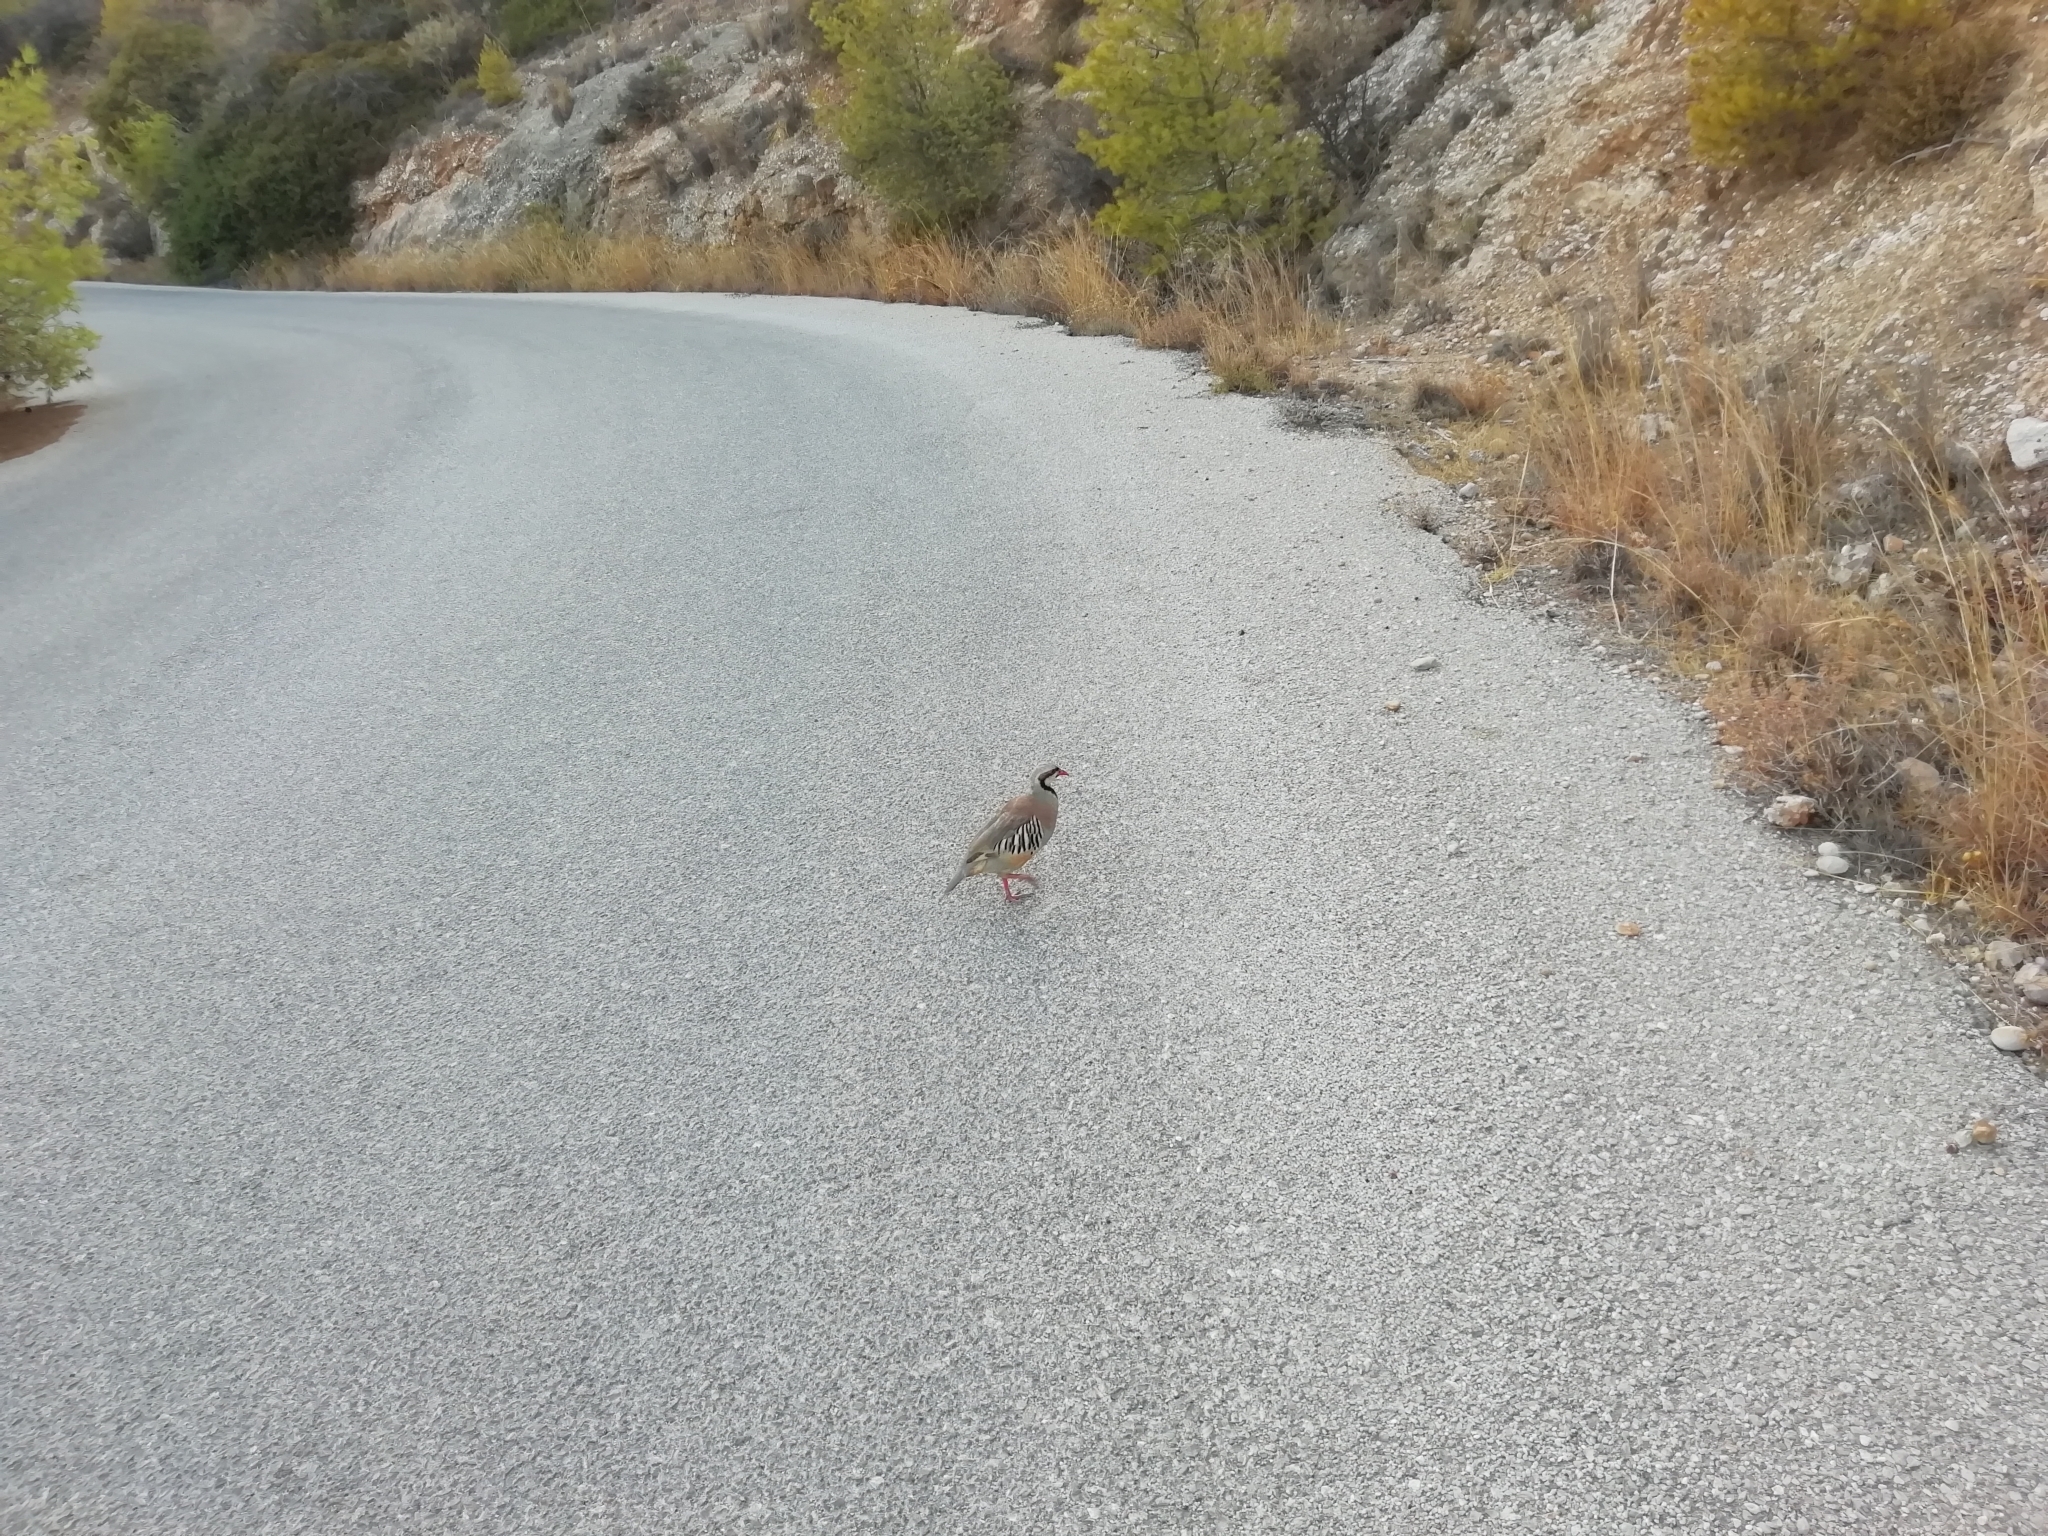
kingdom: Animalia
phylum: Chordata
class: Aves
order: Galliformes
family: Phasianidae
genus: Alectoris
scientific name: Alectoris chukar
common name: Chukar
